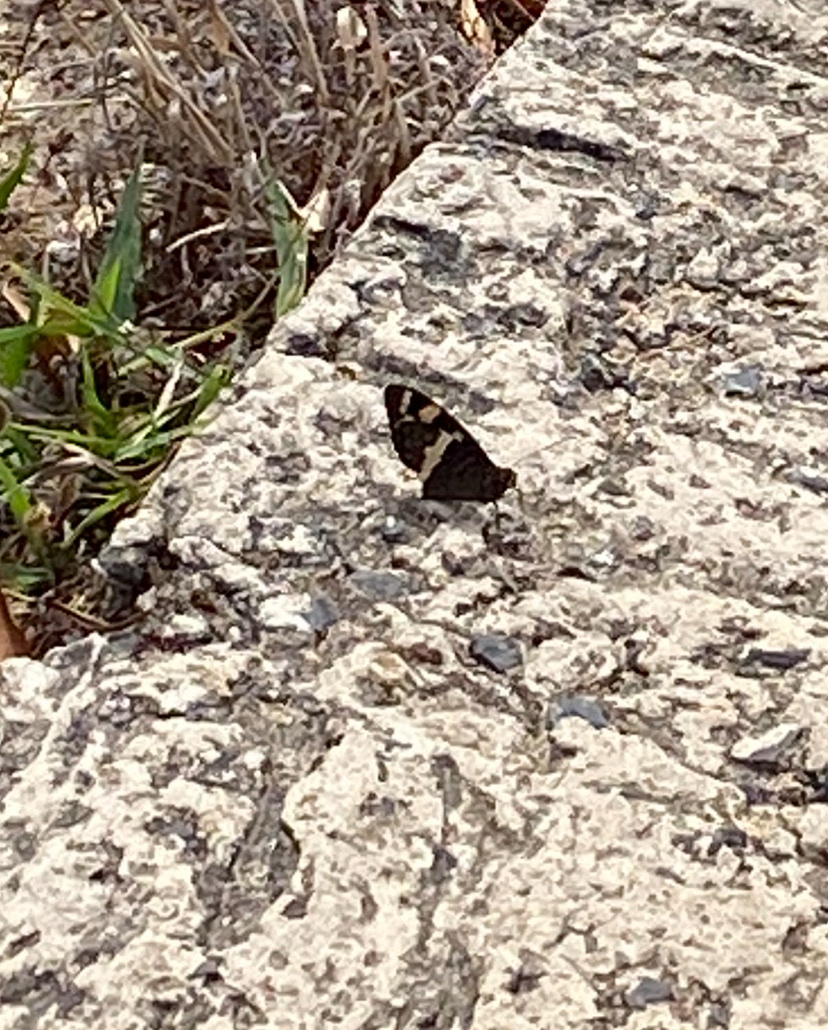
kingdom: Animalia
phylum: Arthropoda
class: Insecta
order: Lepidoptera
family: Nymphalidae
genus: Meneris
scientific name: Meneris Aeropetes tulbaghia
